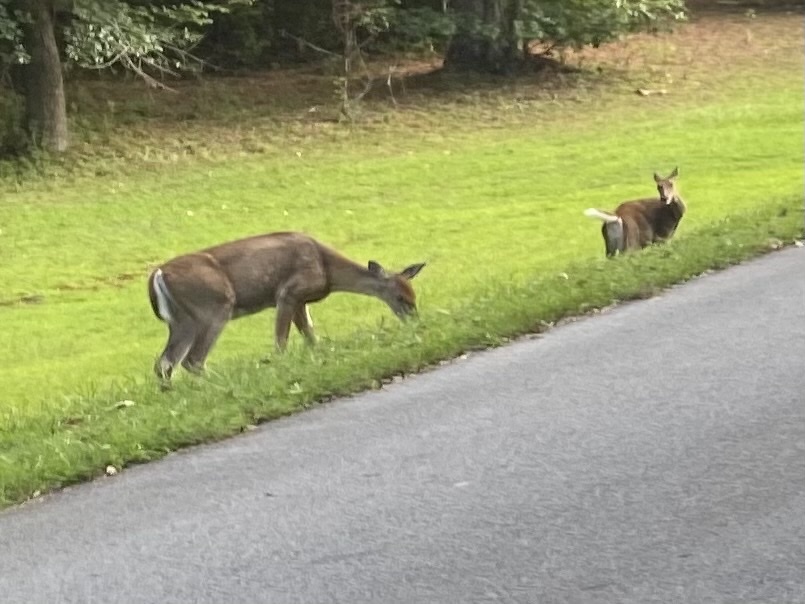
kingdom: Animalia
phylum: Chordata
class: Mammalia
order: Artiodactyla
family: Cervidae
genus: Odocoileus
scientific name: Odocoileus virginianus
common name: White-tailed deer
